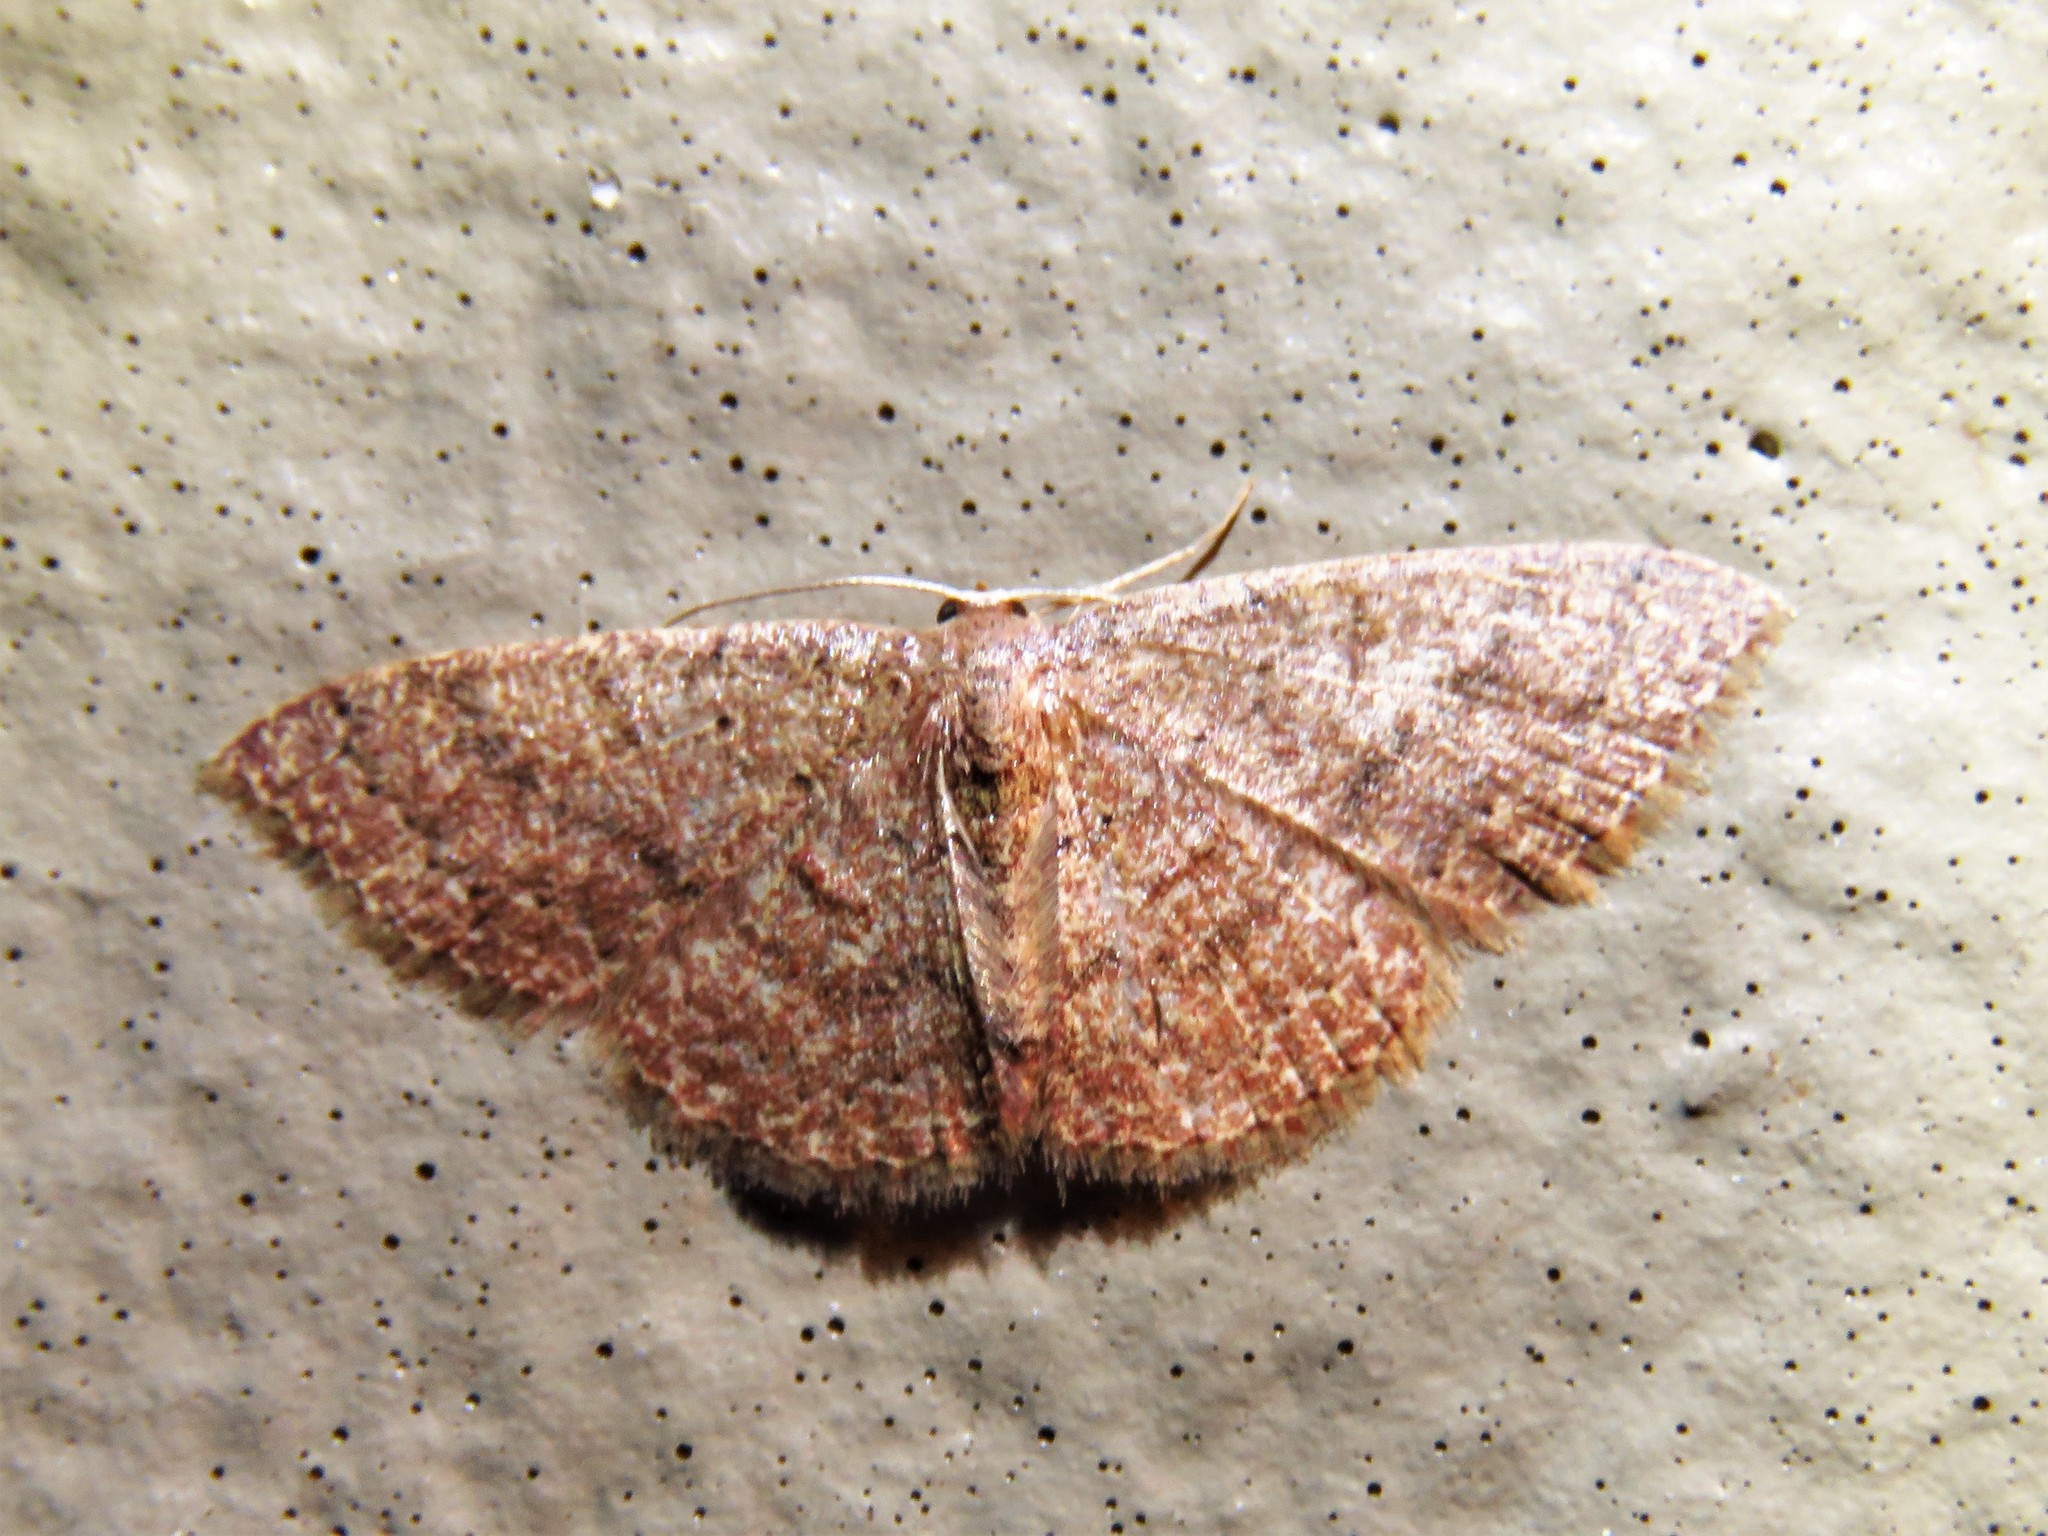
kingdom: Animalia
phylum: Arthropoda
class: Insecta
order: Lepidoptera
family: Geometridae
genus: Pleuroprucha
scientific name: Pleuroprucha insulsaria
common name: Common tan wave
